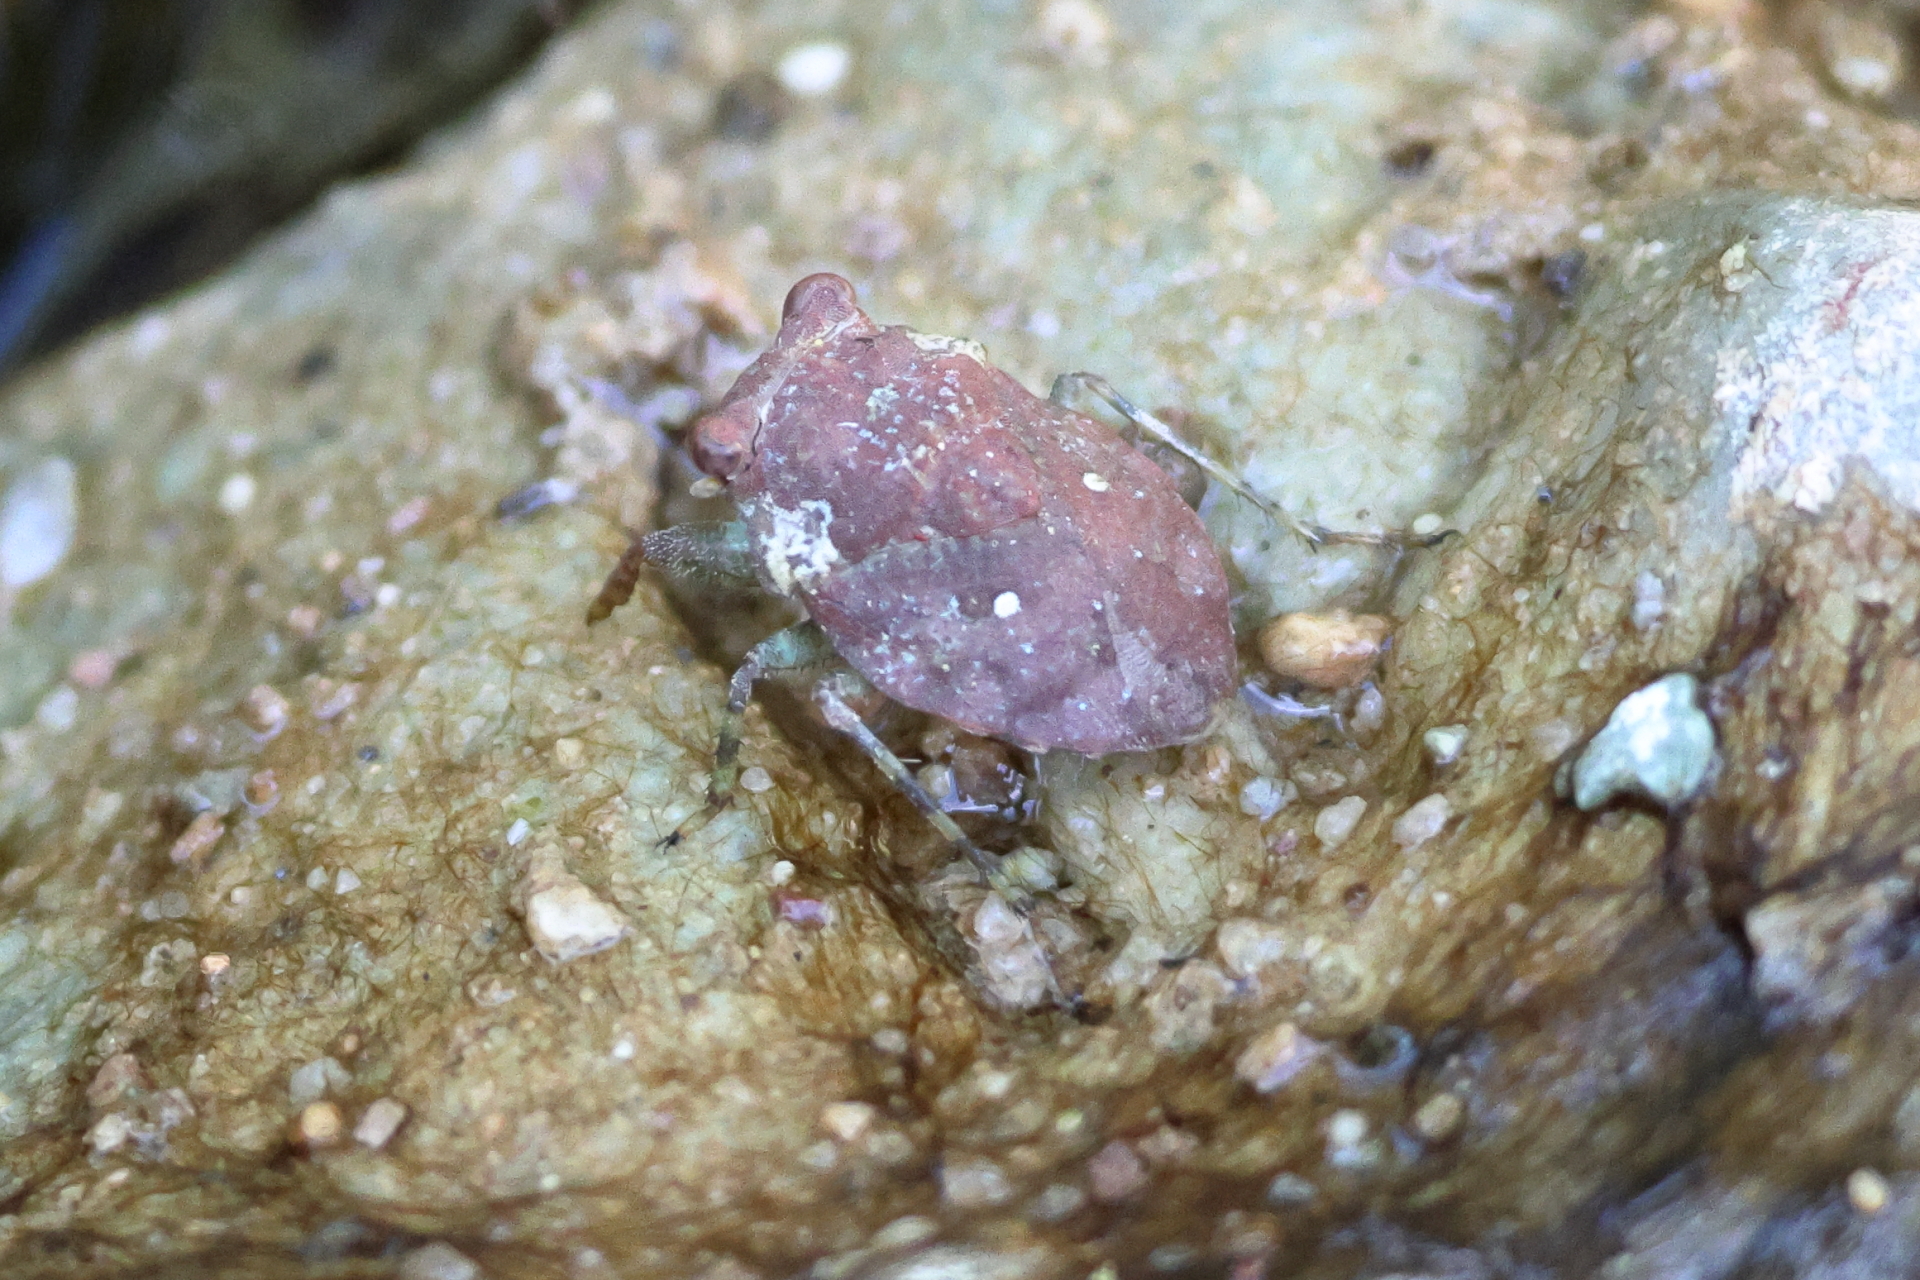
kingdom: Animalia
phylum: Arthropoda
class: Insecta
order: Hemiptera
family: Gelastocoridae
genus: Gelastocoris
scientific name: Gelastocoris rotundatus
